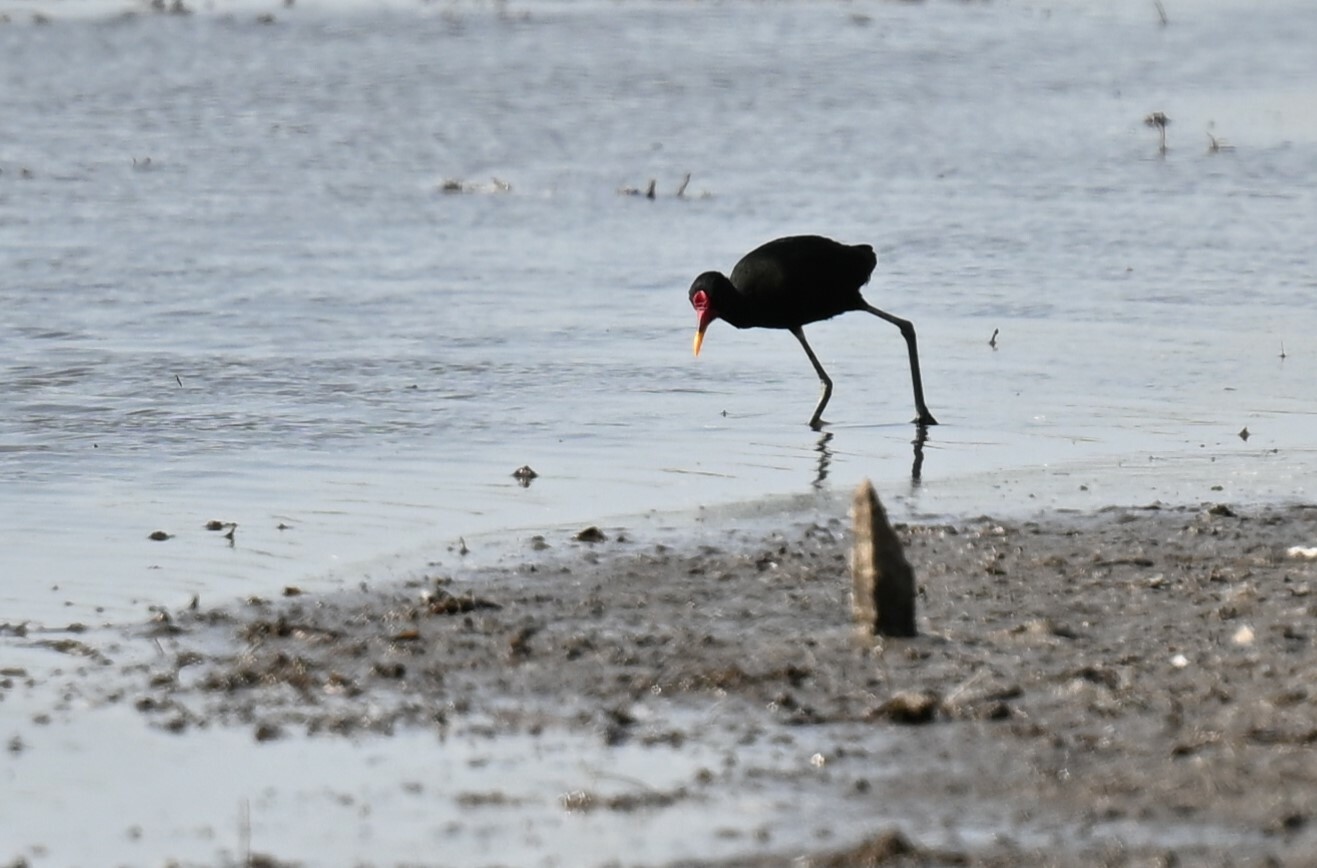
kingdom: Animalia
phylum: Chordata
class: Aves
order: Charadriiformes
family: Jacanidae
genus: Jacana
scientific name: Jacana jacana
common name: Wattled jacana
